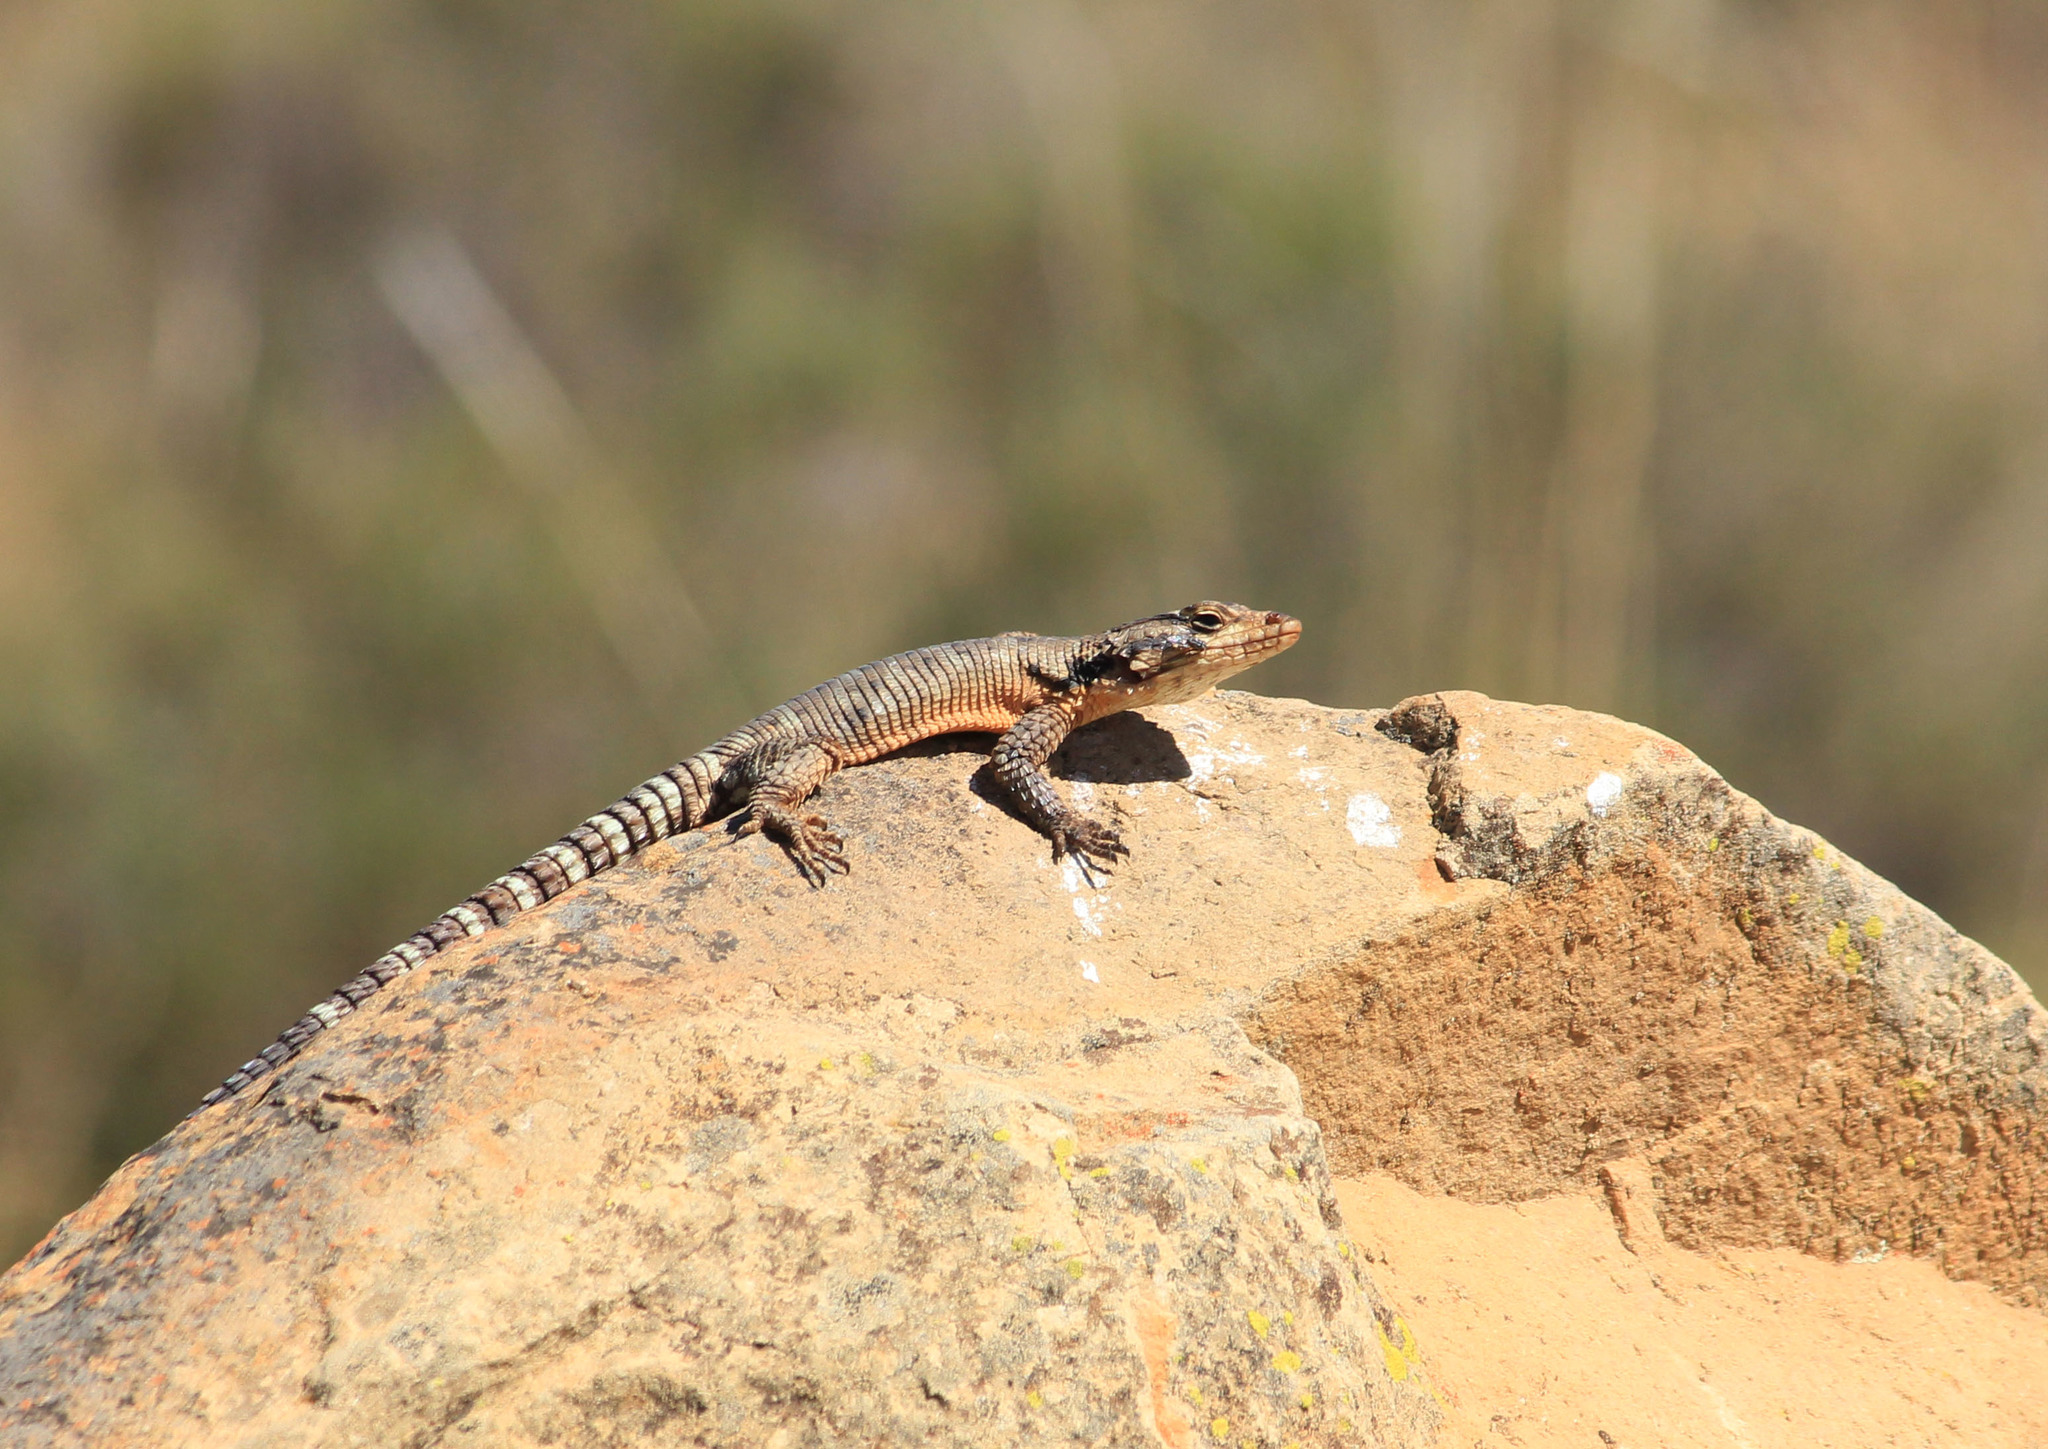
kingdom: Animalia
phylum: Chordata
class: Squamata
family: Cordylidae
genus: Karusasaurus
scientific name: Karusasaurus polyzonus
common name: Karoo girdled lizard
